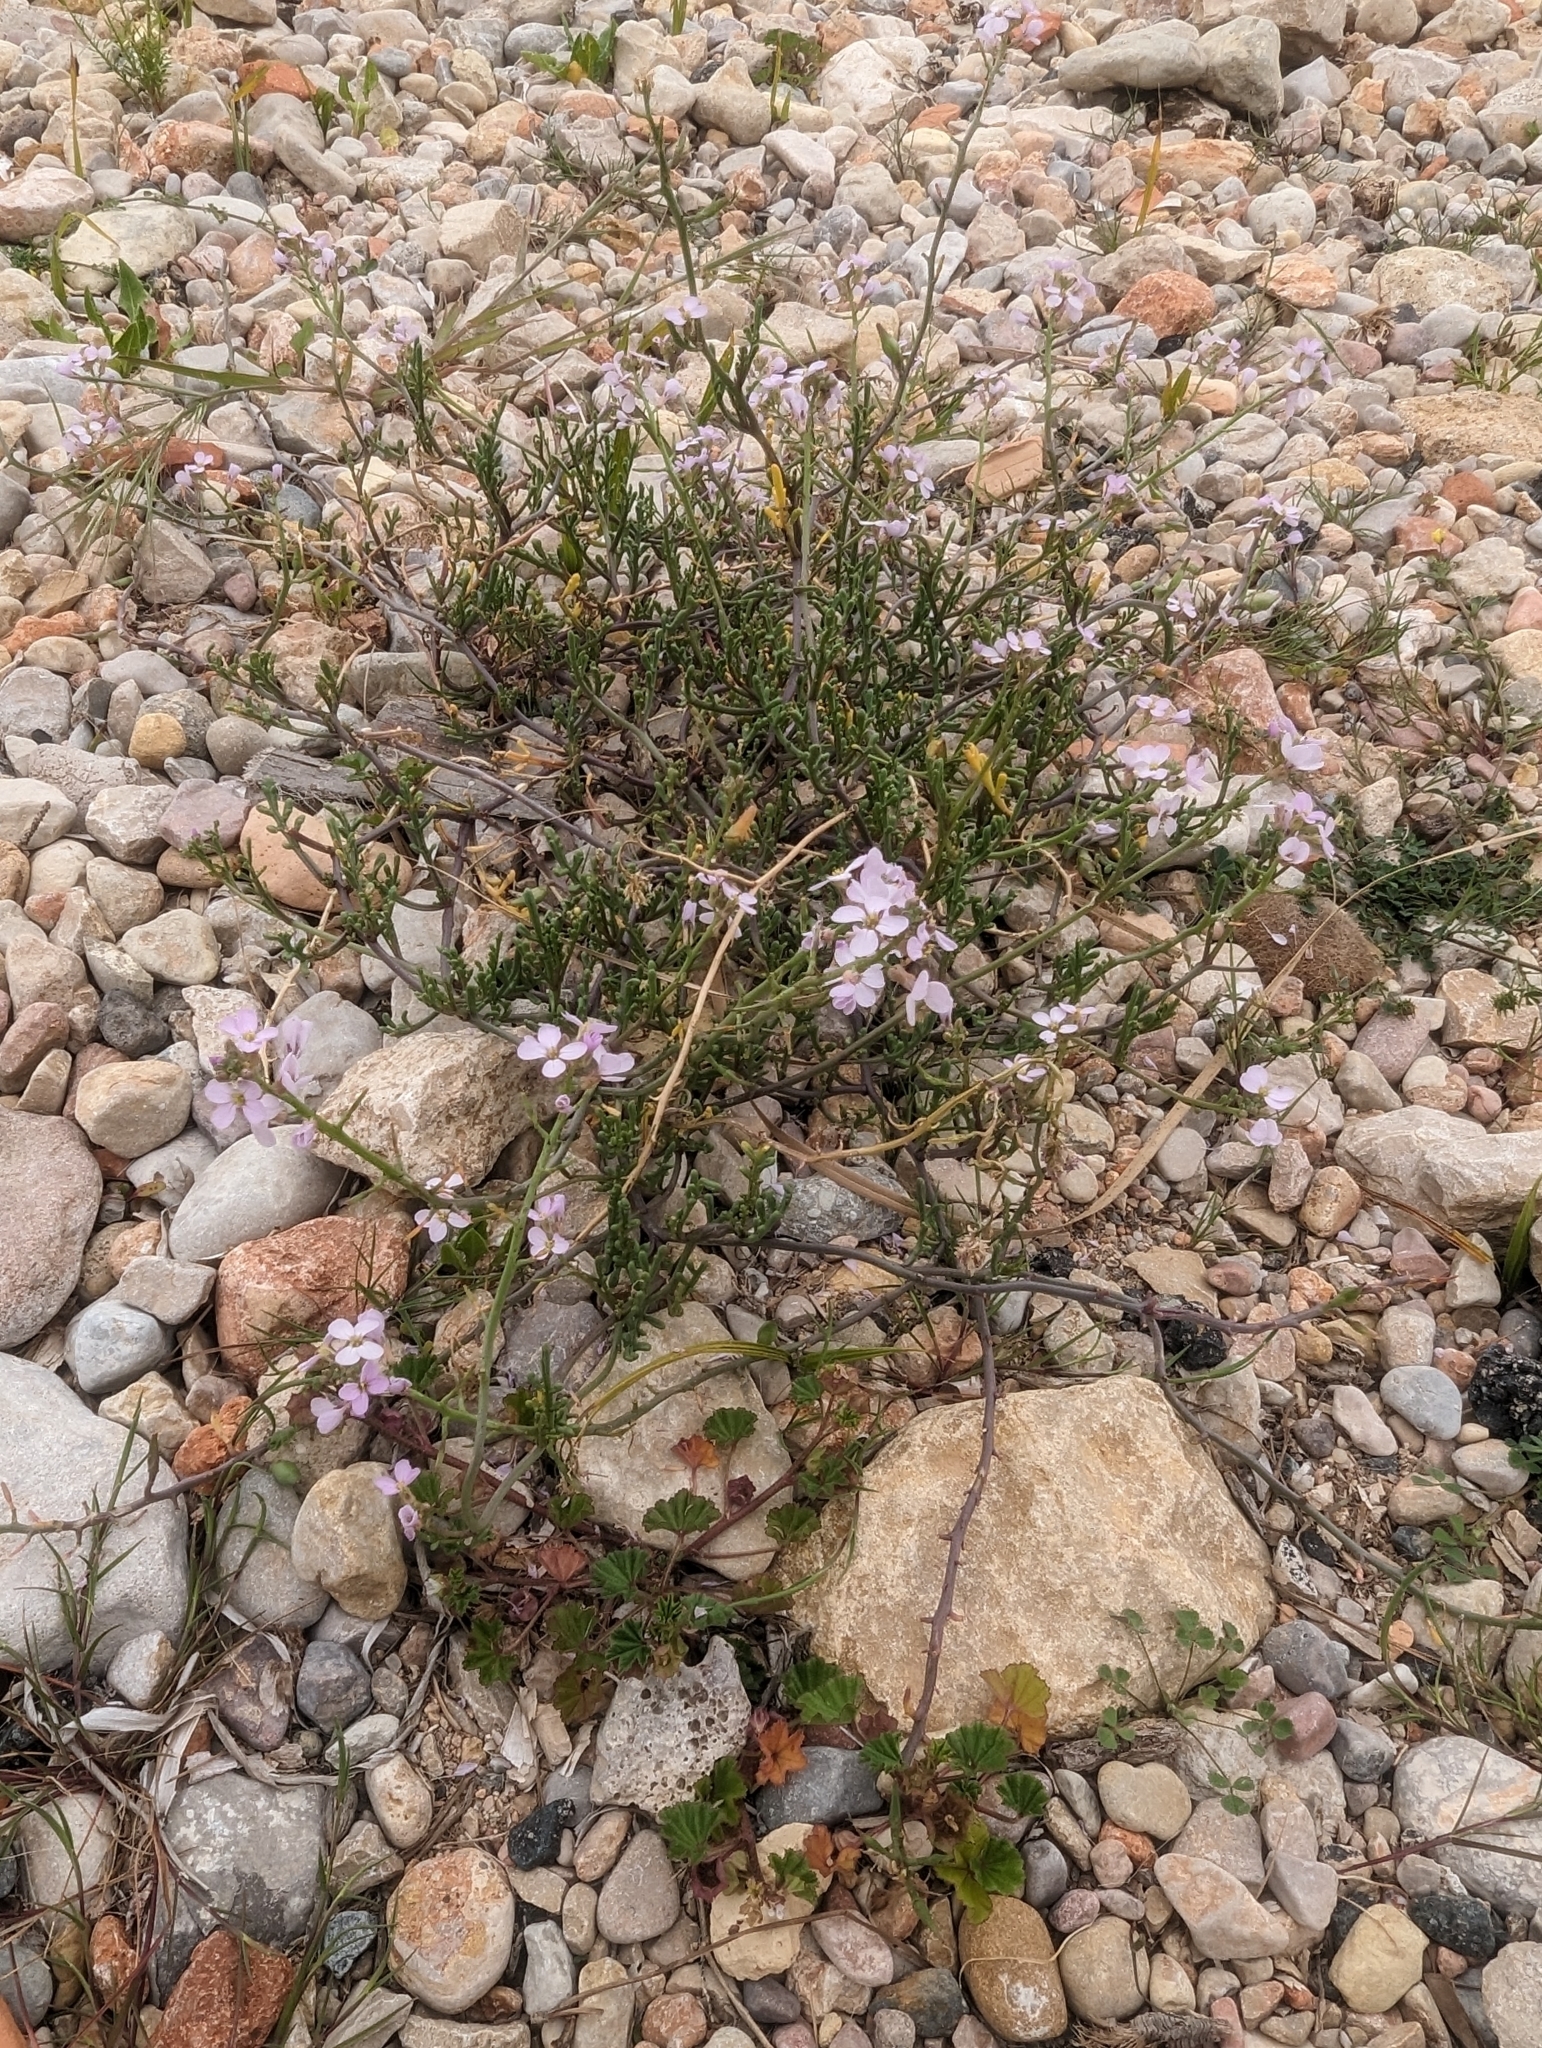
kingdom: Plantae
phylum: Tracheophyta
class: Magnoliopsida
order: Brassicales
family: Brassicaceae
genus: Cakile
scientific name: Cakile maritima
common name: Sea rocket
